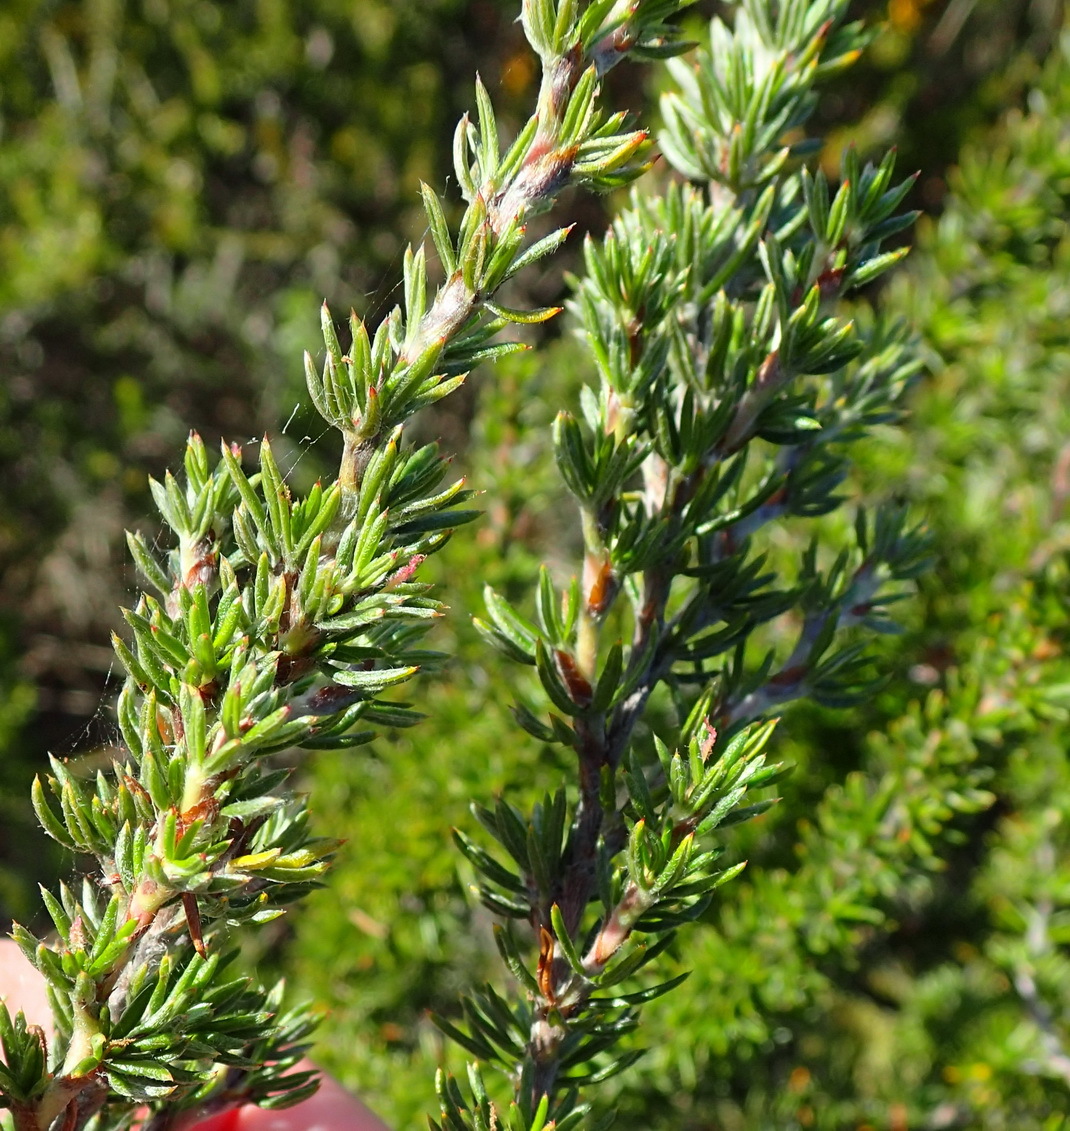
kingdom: Plantae
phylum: Tracheophyta
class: Magnoliopsida
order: Rosales
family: Rosaceae
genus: Cliffortia
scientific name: Cliffortia stricta
